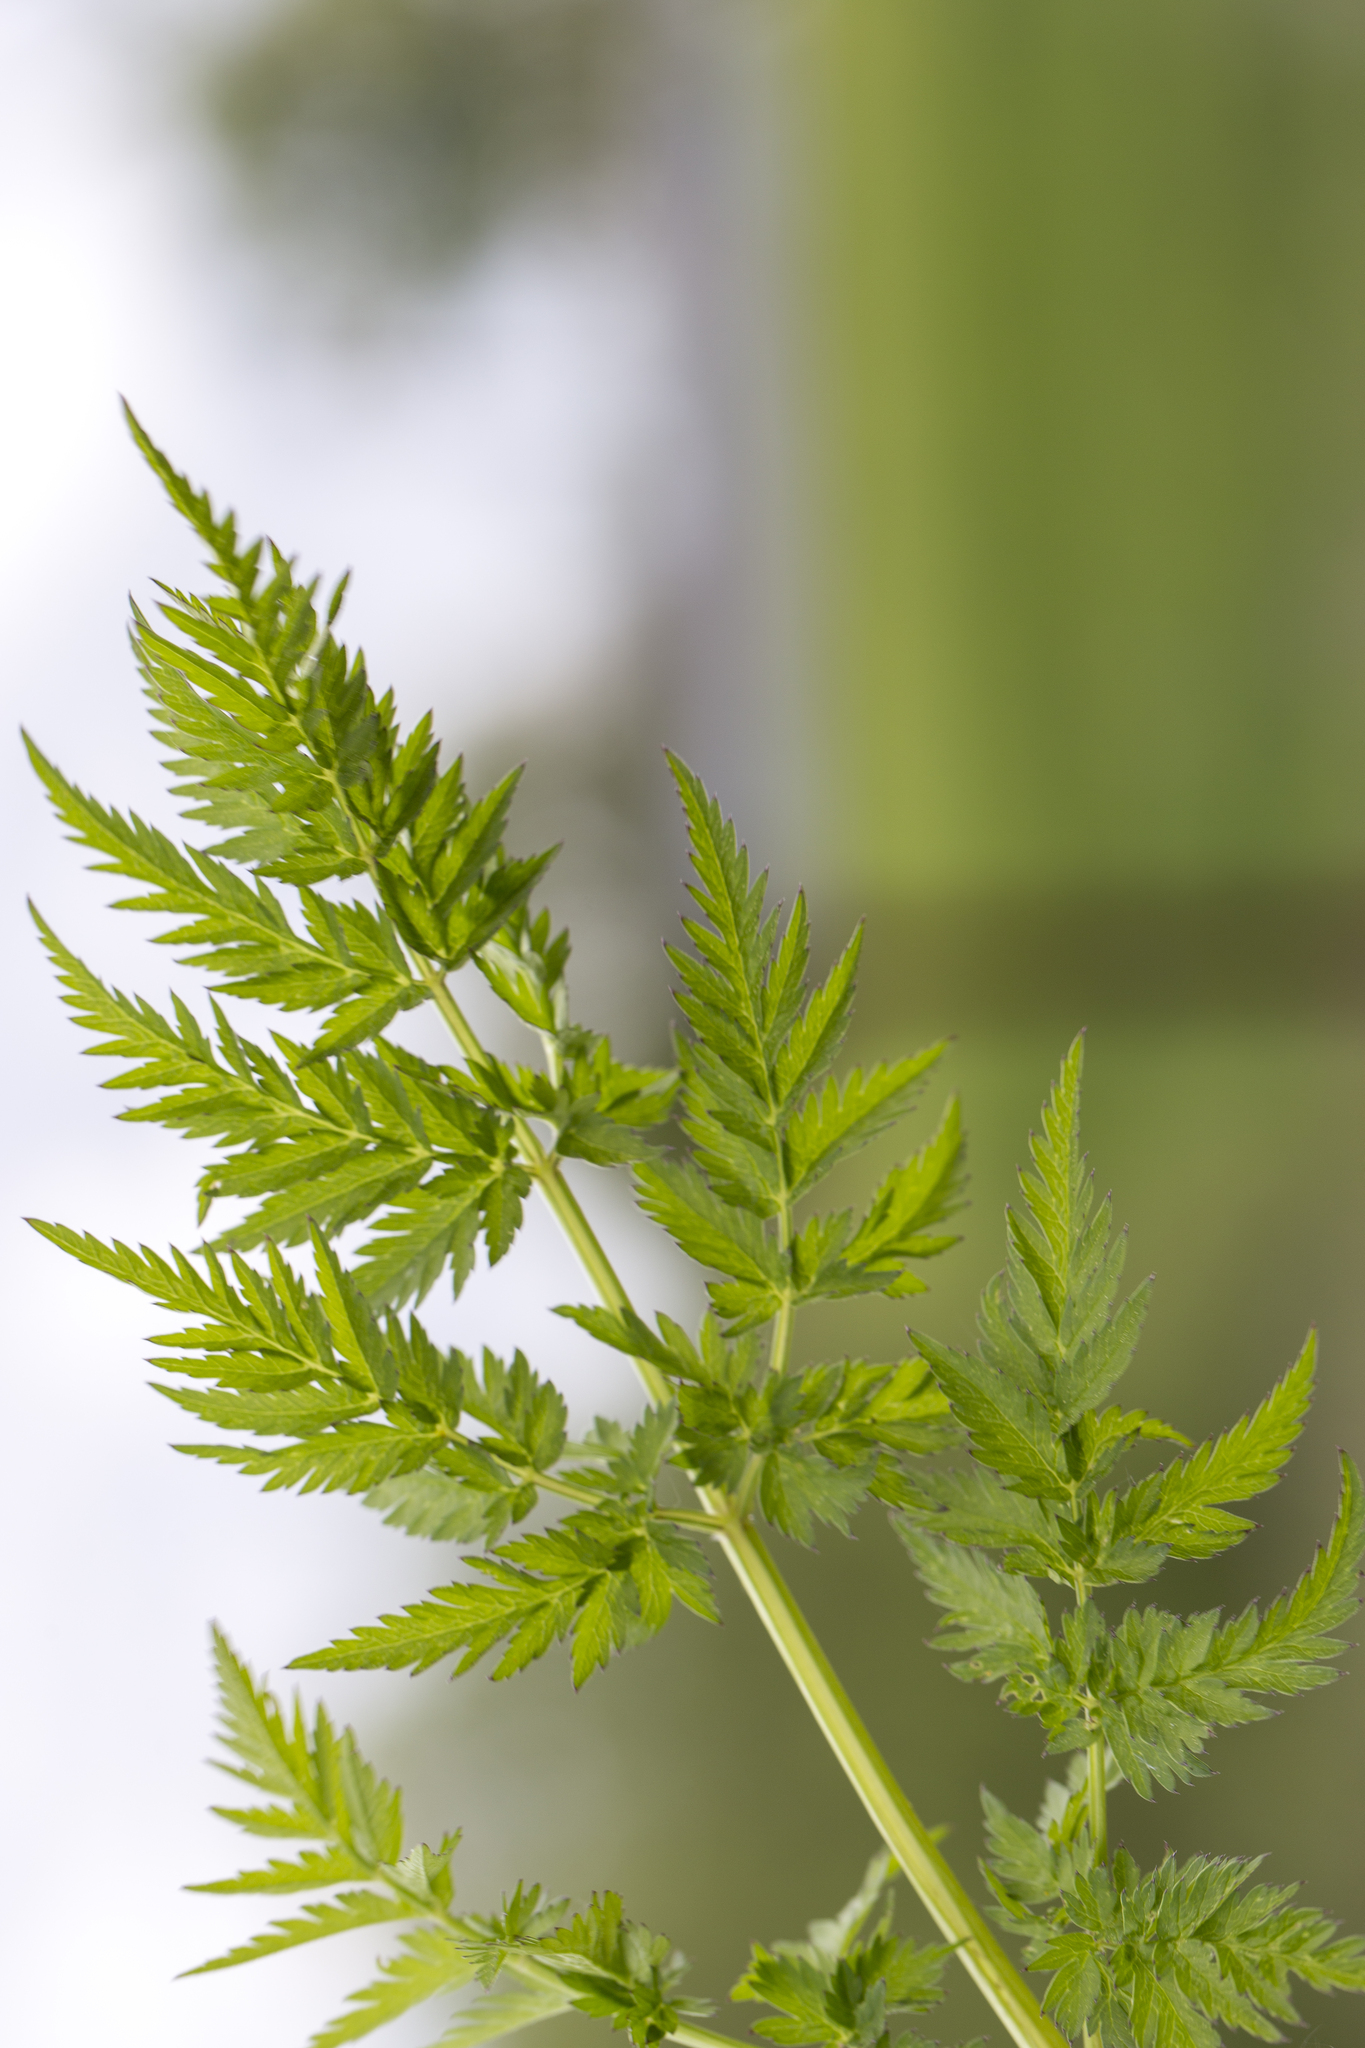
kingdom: Plantae
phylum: Tracheophyta
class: Magnoliopsida
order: Apiales
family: Apiaceae
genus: Anthriscus
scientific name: Anthriscus sylvestris
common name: Cow parsley
